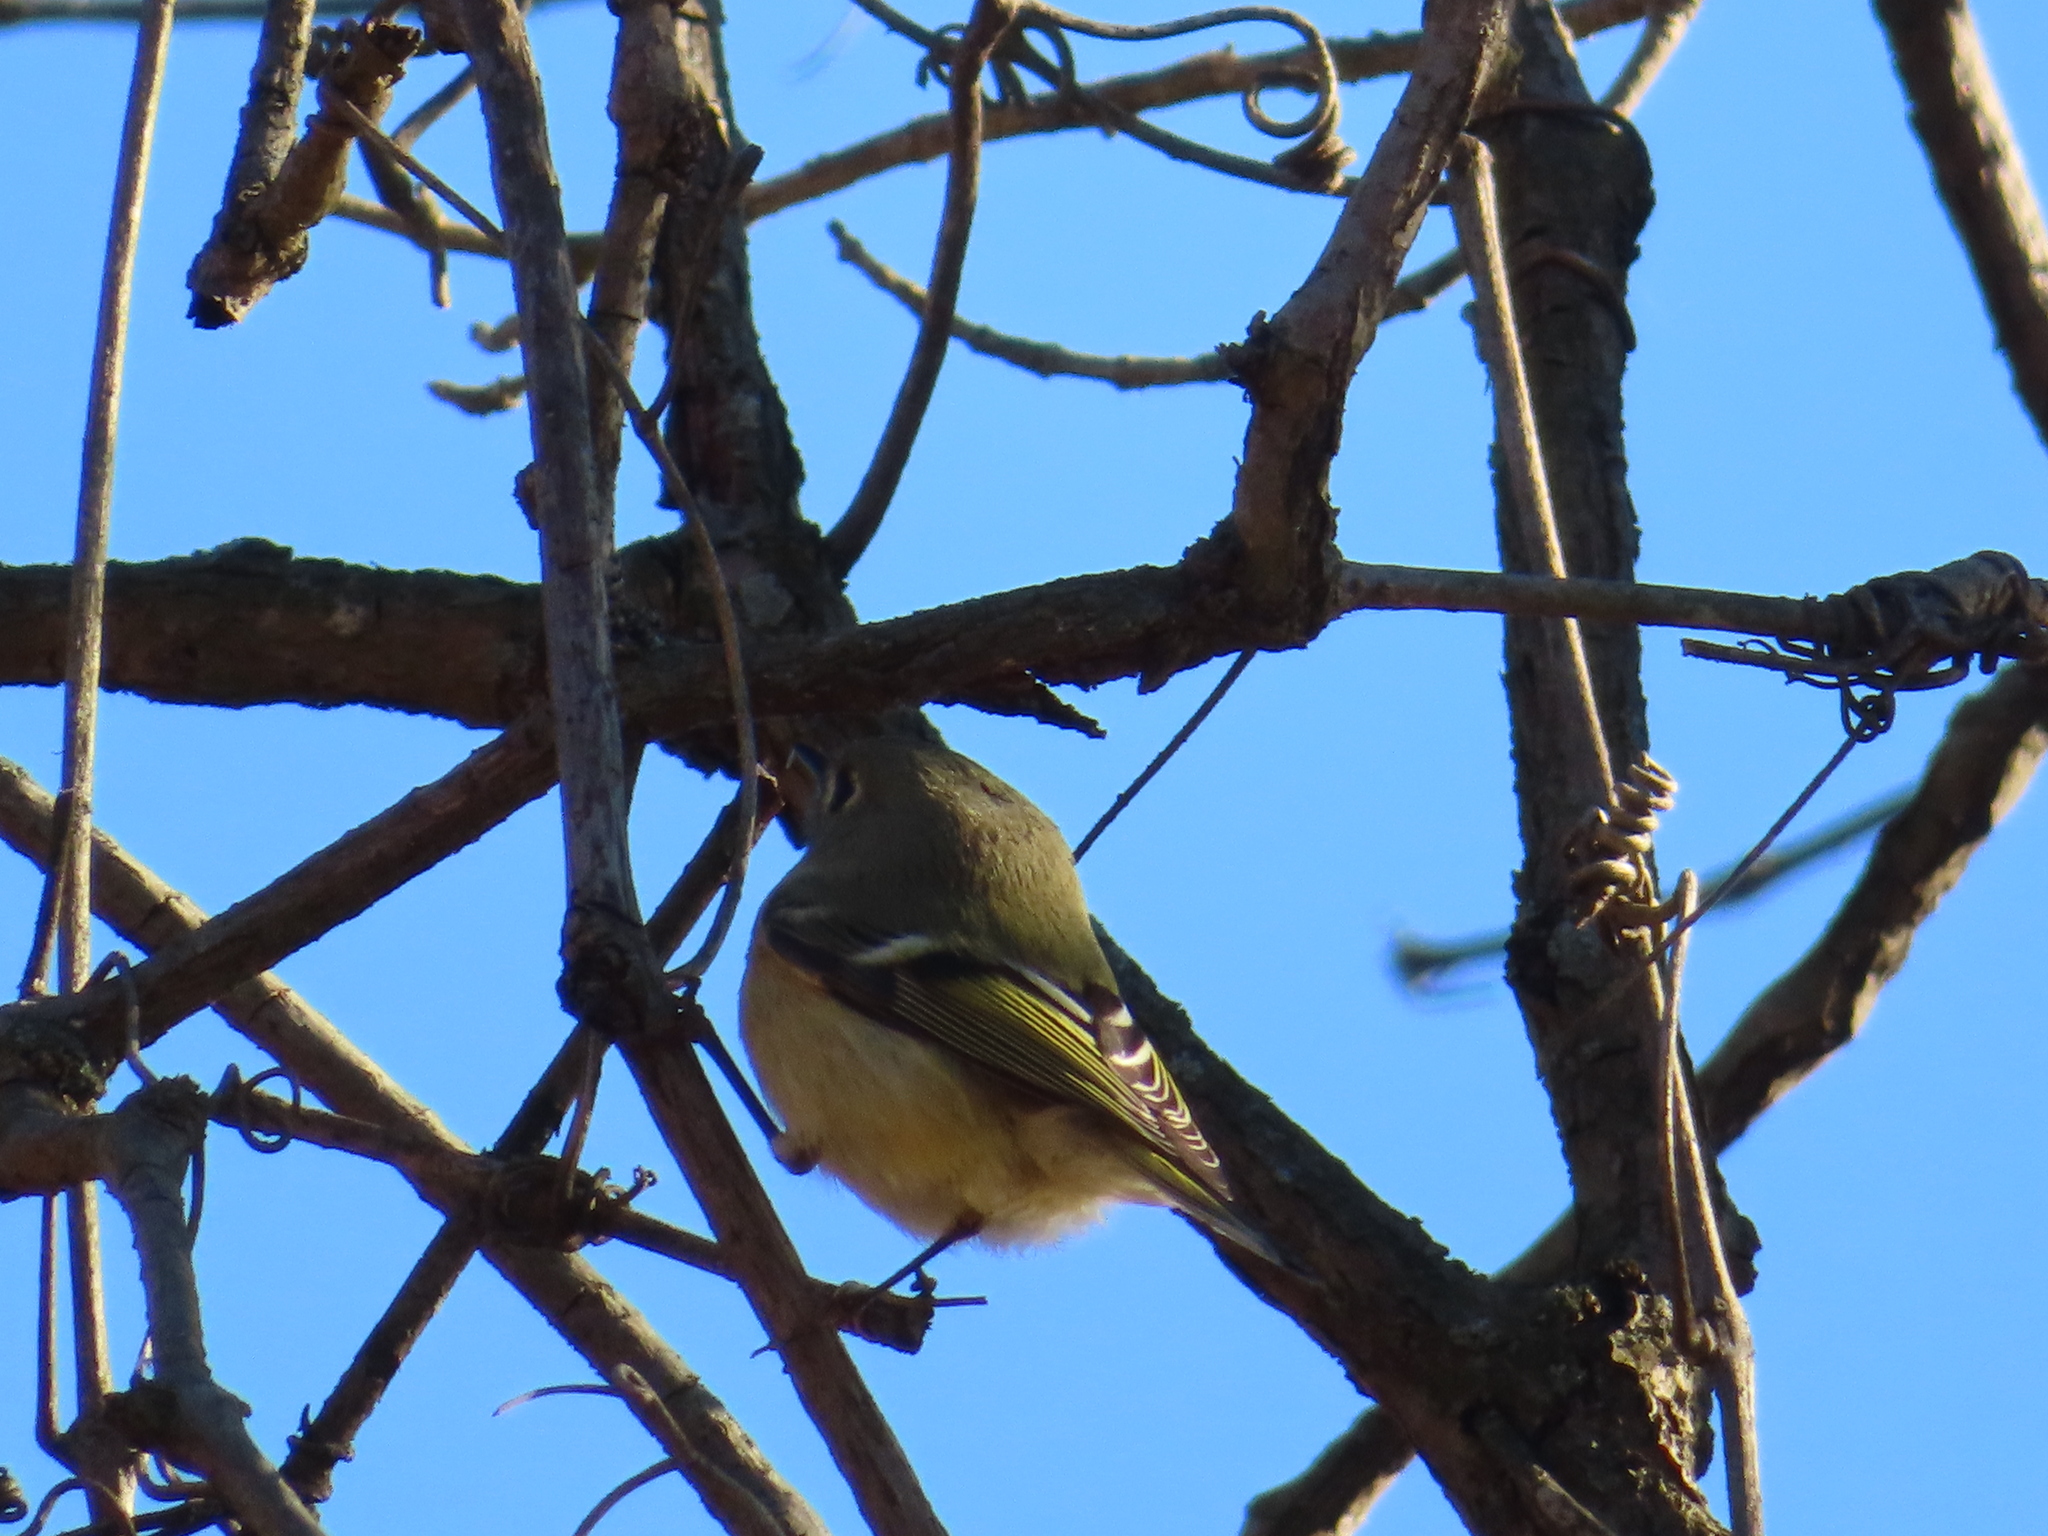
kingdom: Animalia
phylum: Chordata
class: Aves
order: Passeriformes
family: Regulidae
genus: Regulus
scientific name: Regulus calendula
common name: Ruby-crowned kinglet
